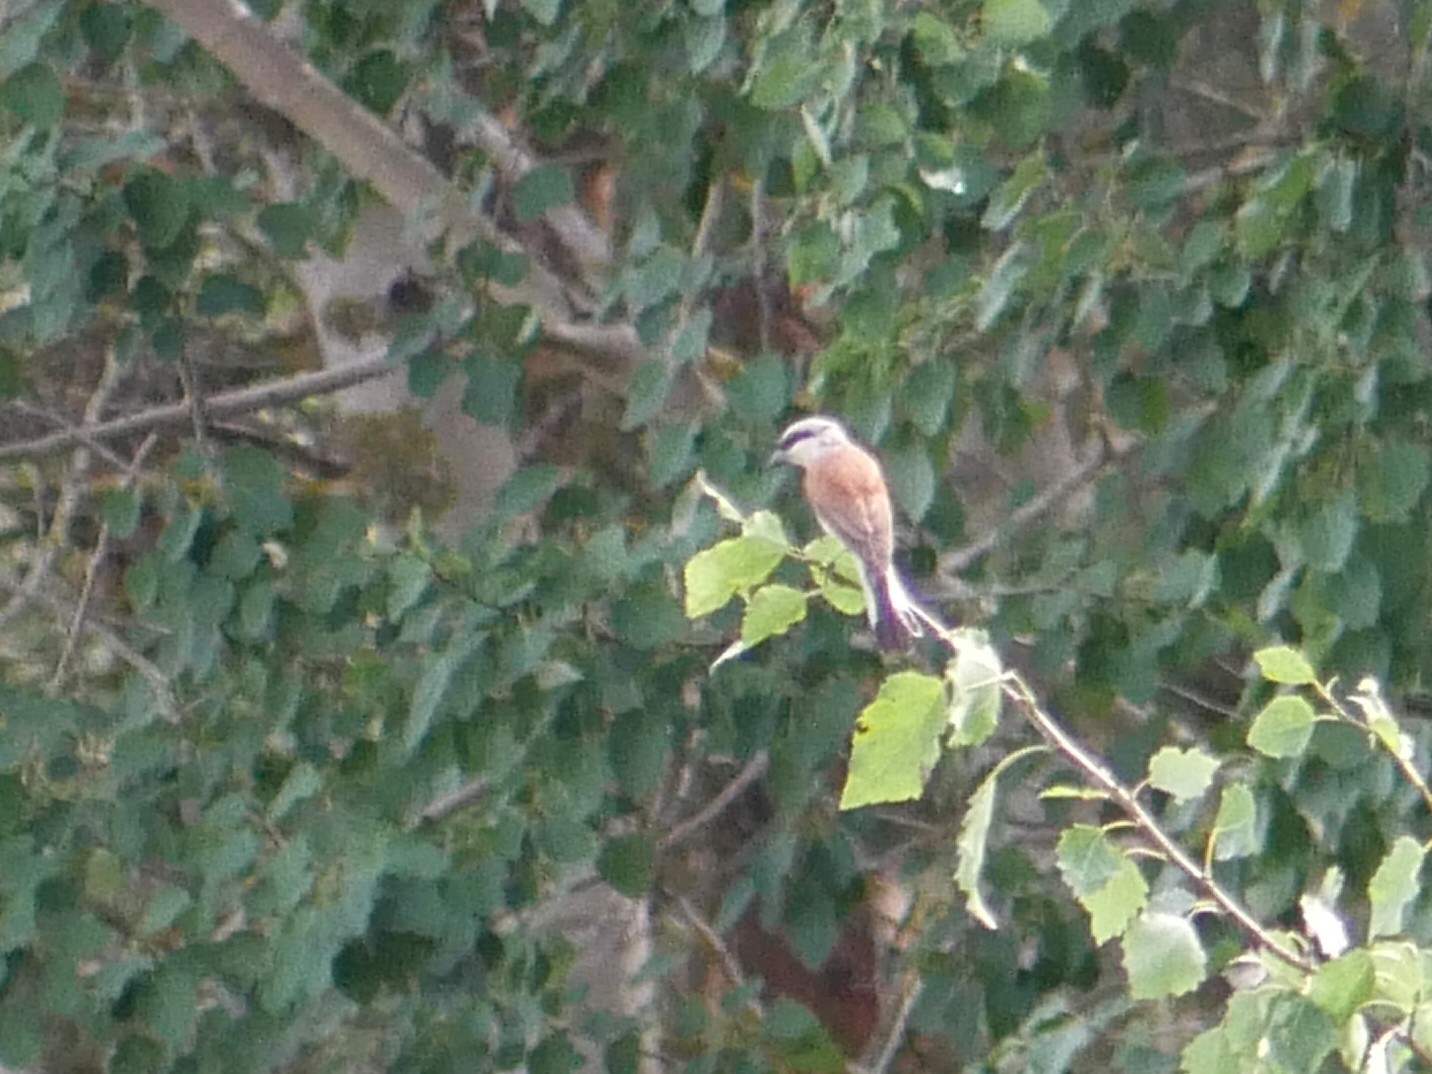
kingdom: Animalia
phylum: Chordata
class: Aves
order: Passeriformes
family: Laniidae
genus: Lanius
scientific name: Lanius collurio
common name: Red-backed shrike
